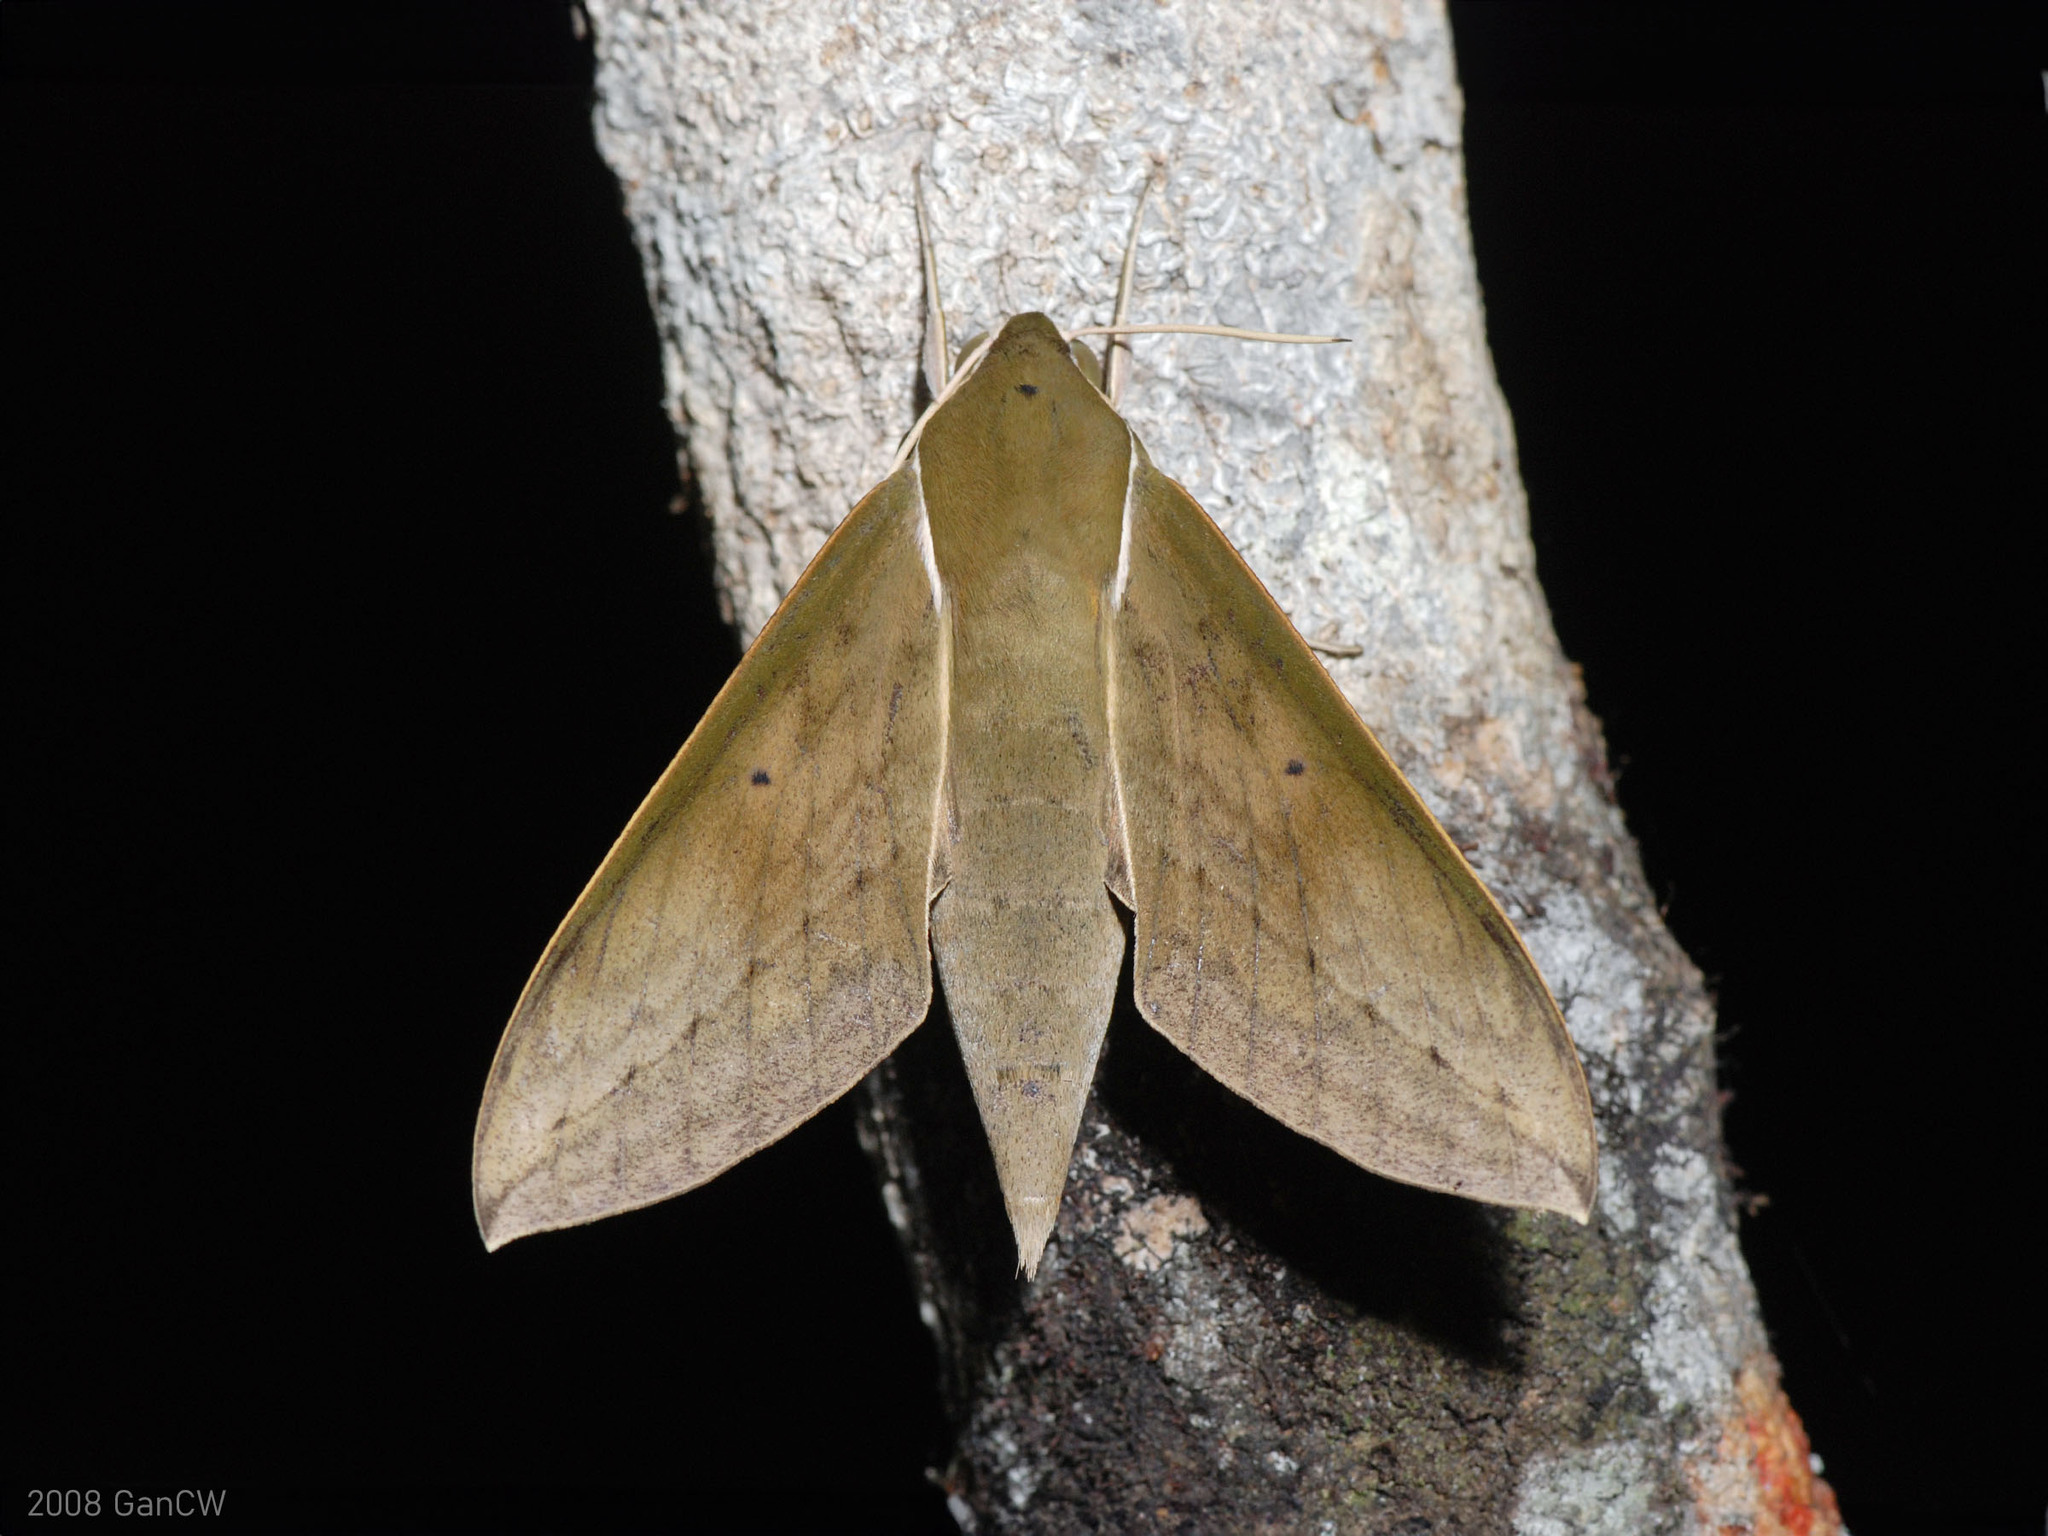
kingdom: Animalia
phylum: Arthropoda
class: Insecta
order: Lepidoptera
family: Sphingidae
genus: Theretra
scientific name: Theretra boisduvalii
